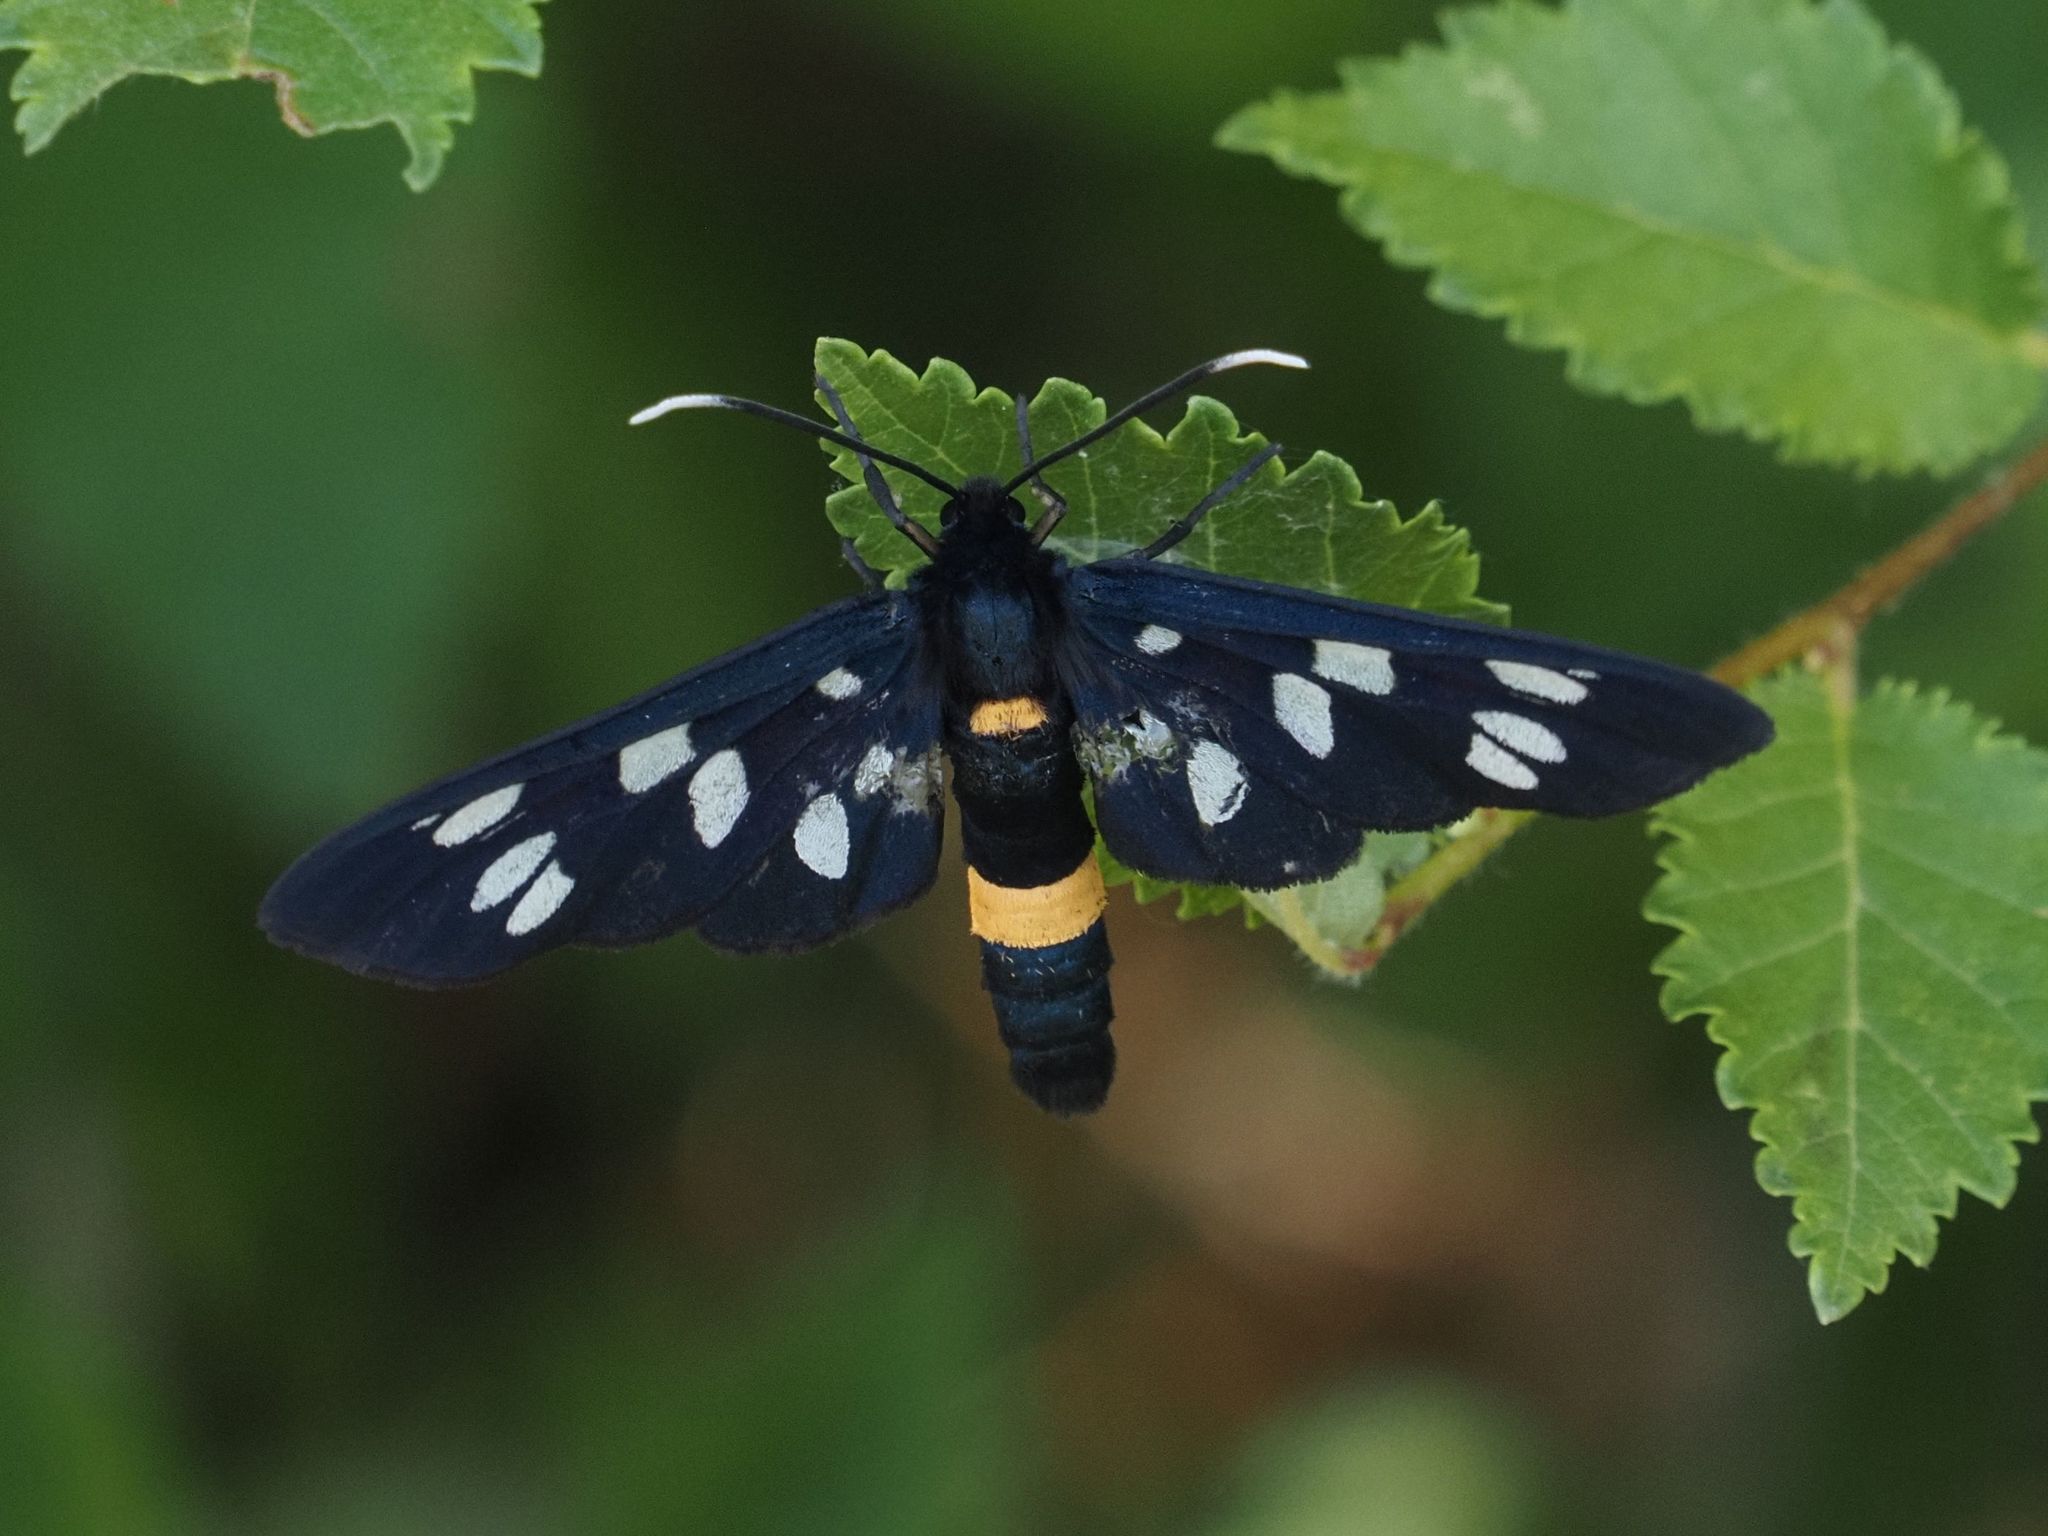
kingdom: Animalia
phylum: Arthropoda
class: Insecta
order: Lepidoptera
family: Erebidae
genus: Amata
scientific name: Amata phegea
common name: Nine-spotted
